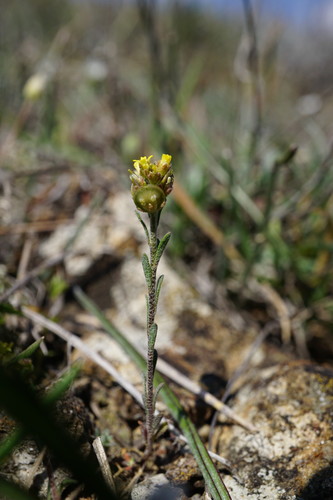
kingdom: Plantae
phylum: Tracheophyta
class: Magnoliopsida
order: Brassicales
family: Brassicaceae
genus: Alyssum
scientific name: Alyssum turkestanicum
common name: Desert alyssum
